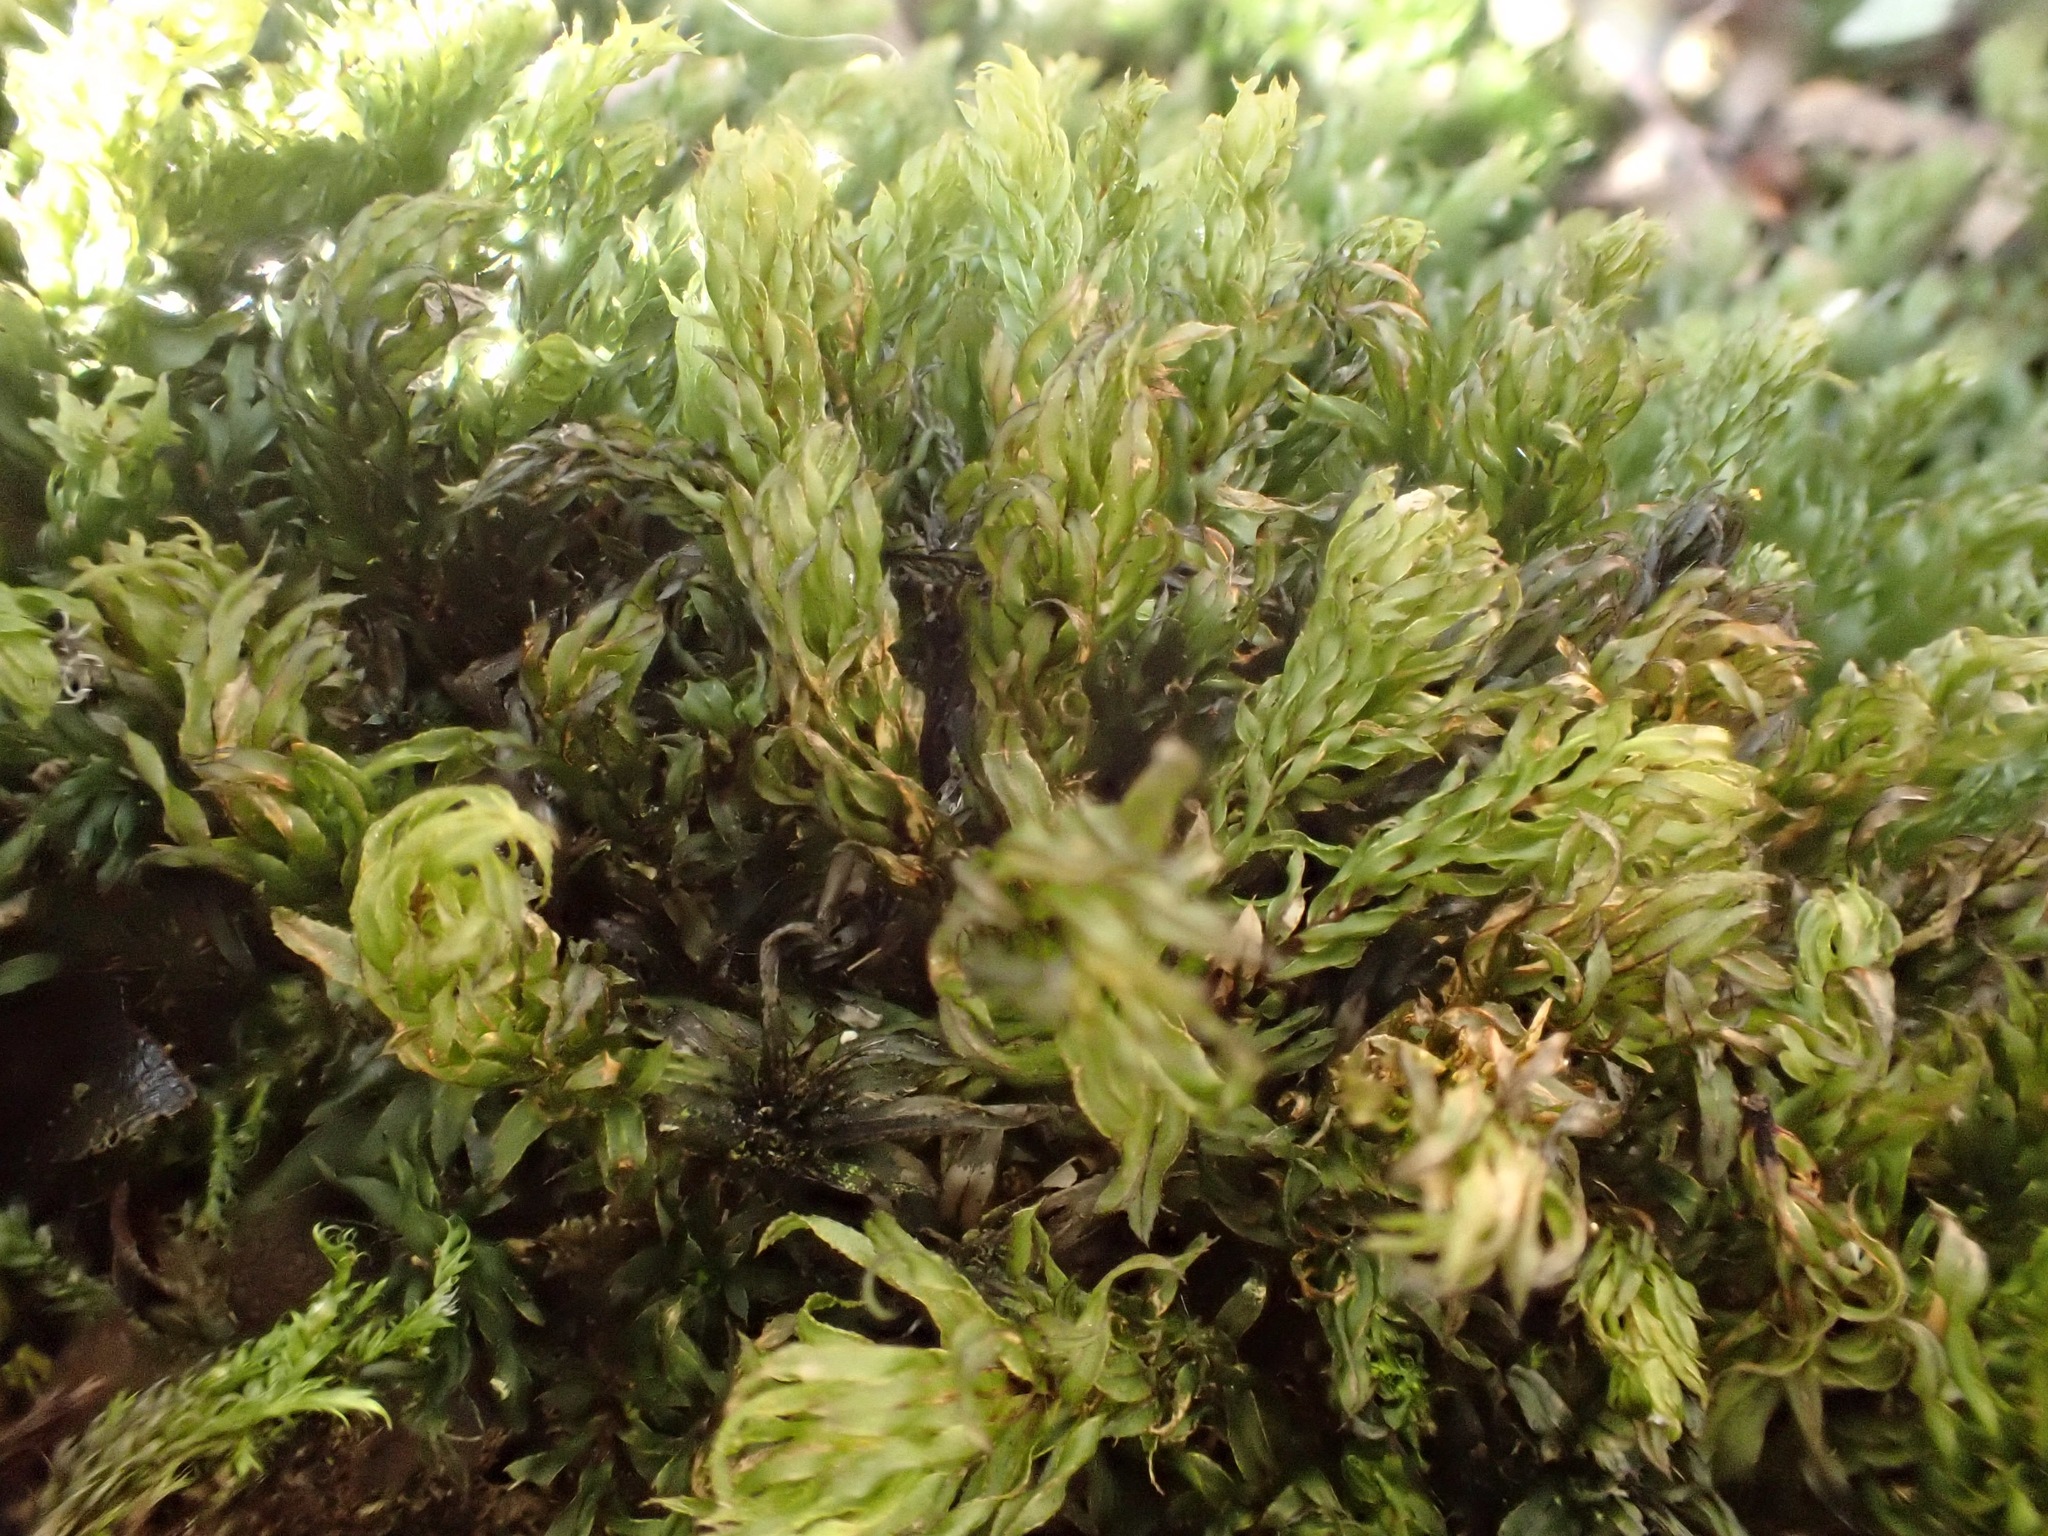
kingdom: Plantae
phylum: Bryophyta
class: Bryopsida
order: Bryales
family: Mniaceae
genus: Mnium
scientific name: Mnium hornum
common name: Swan's-neck leafy moss
